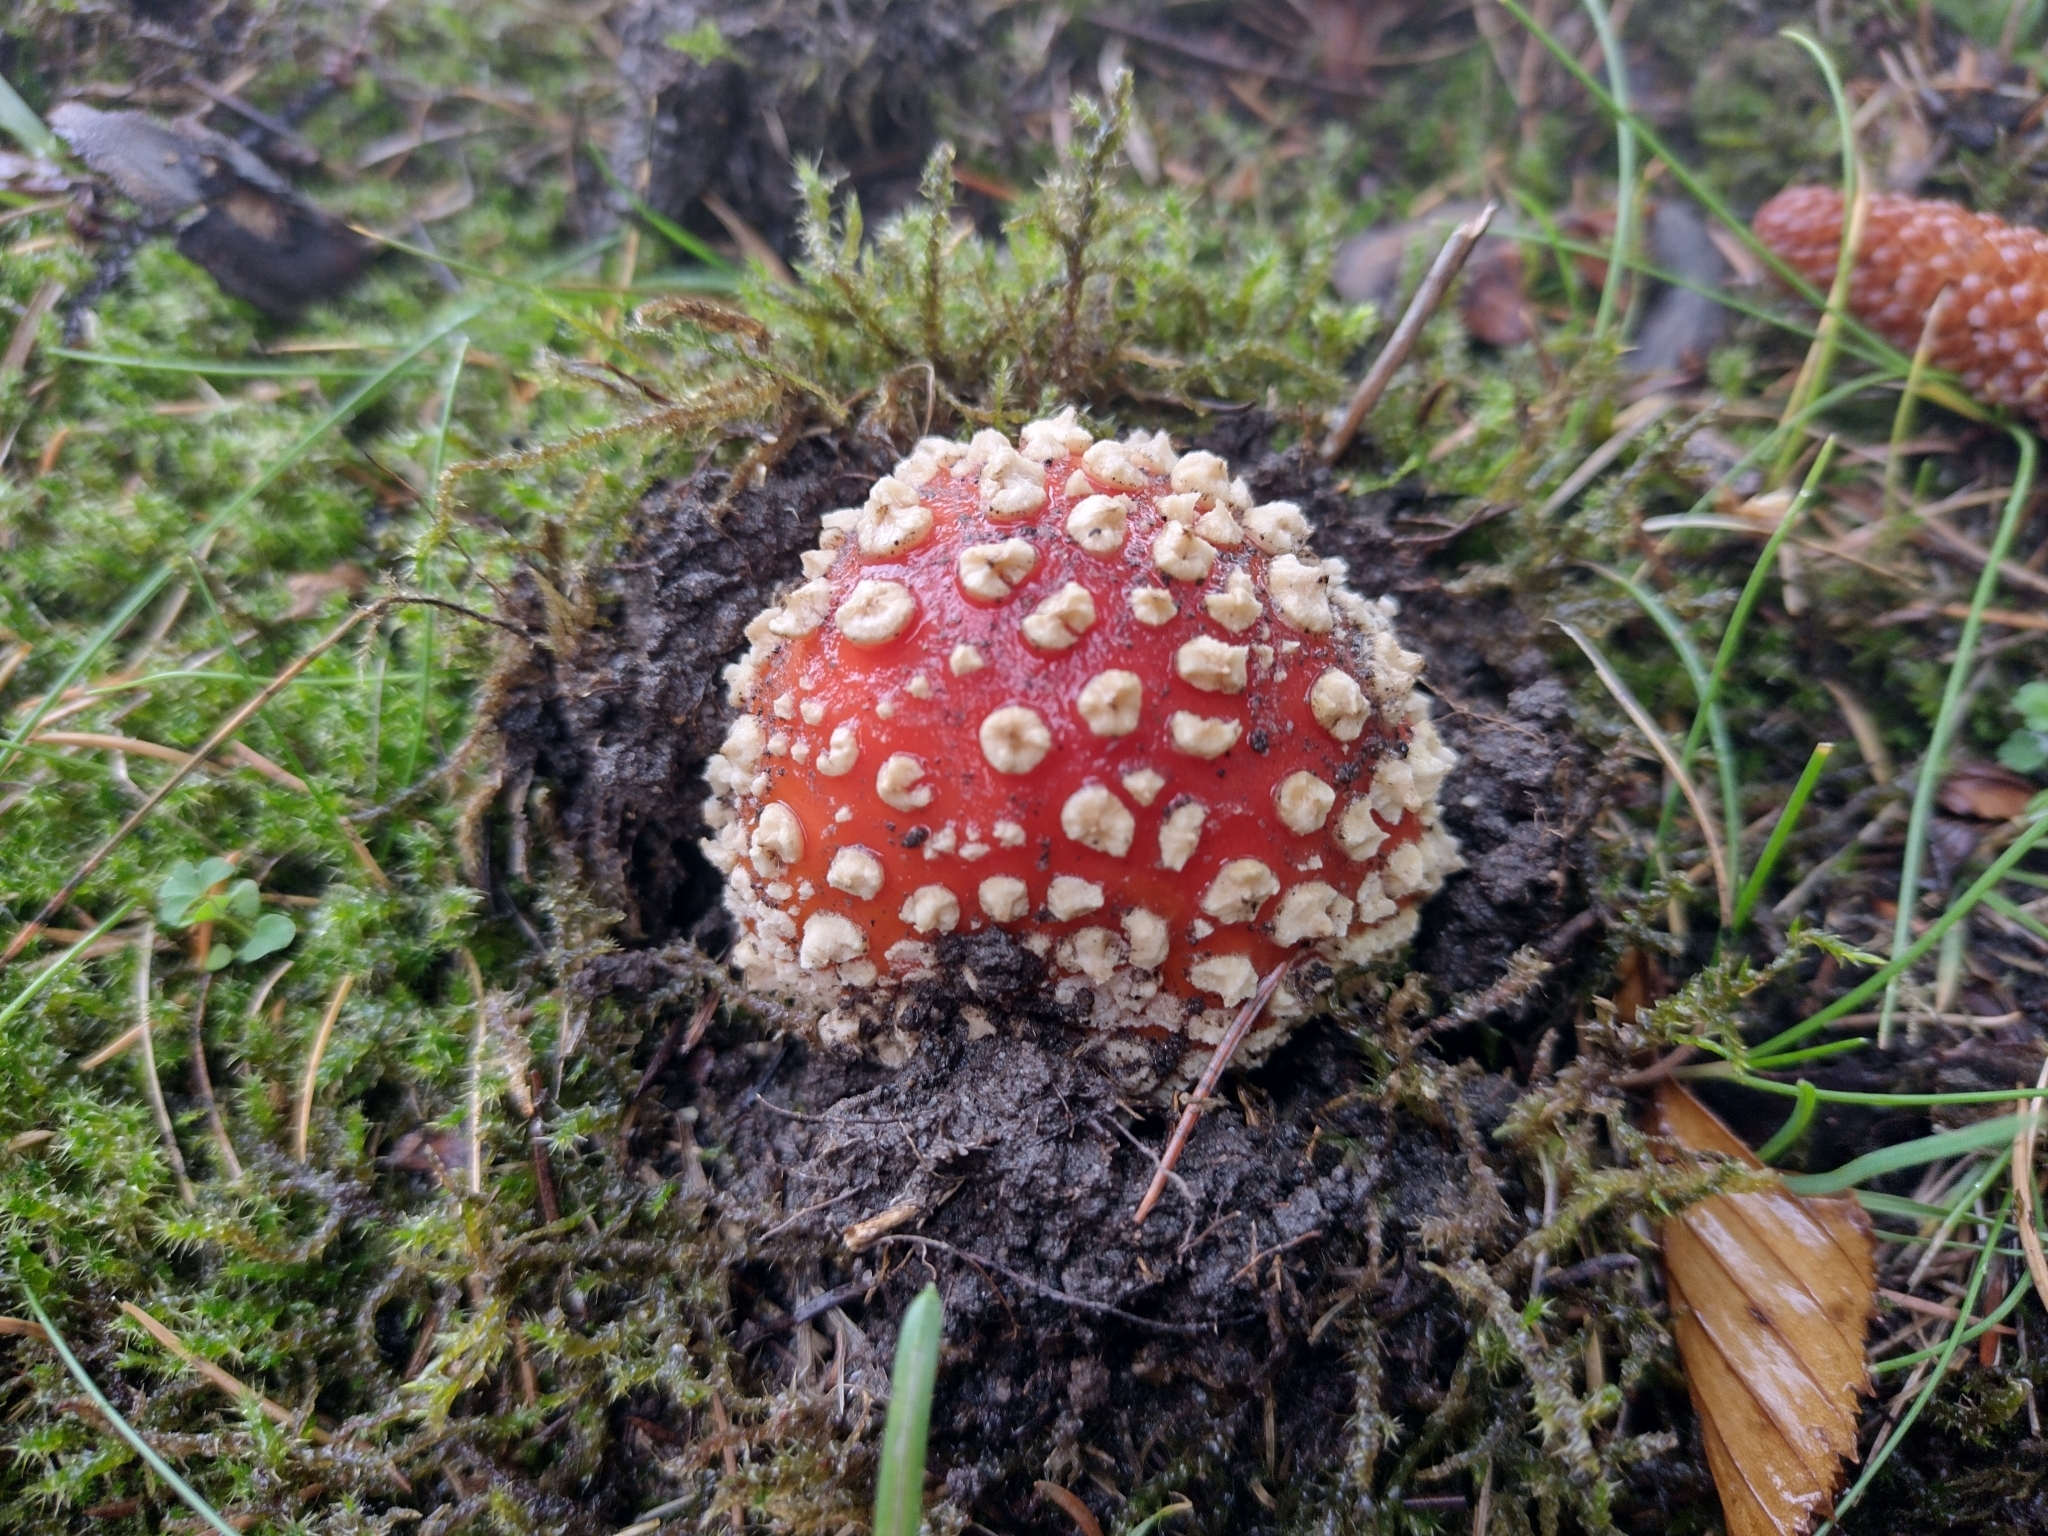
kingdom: Fungi
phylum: Basidiomycota
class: Agaricomycetes
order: Agaricales
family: Amanitaceae
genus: Amanita
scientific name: Amanita muscaria
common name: Fly agaric
